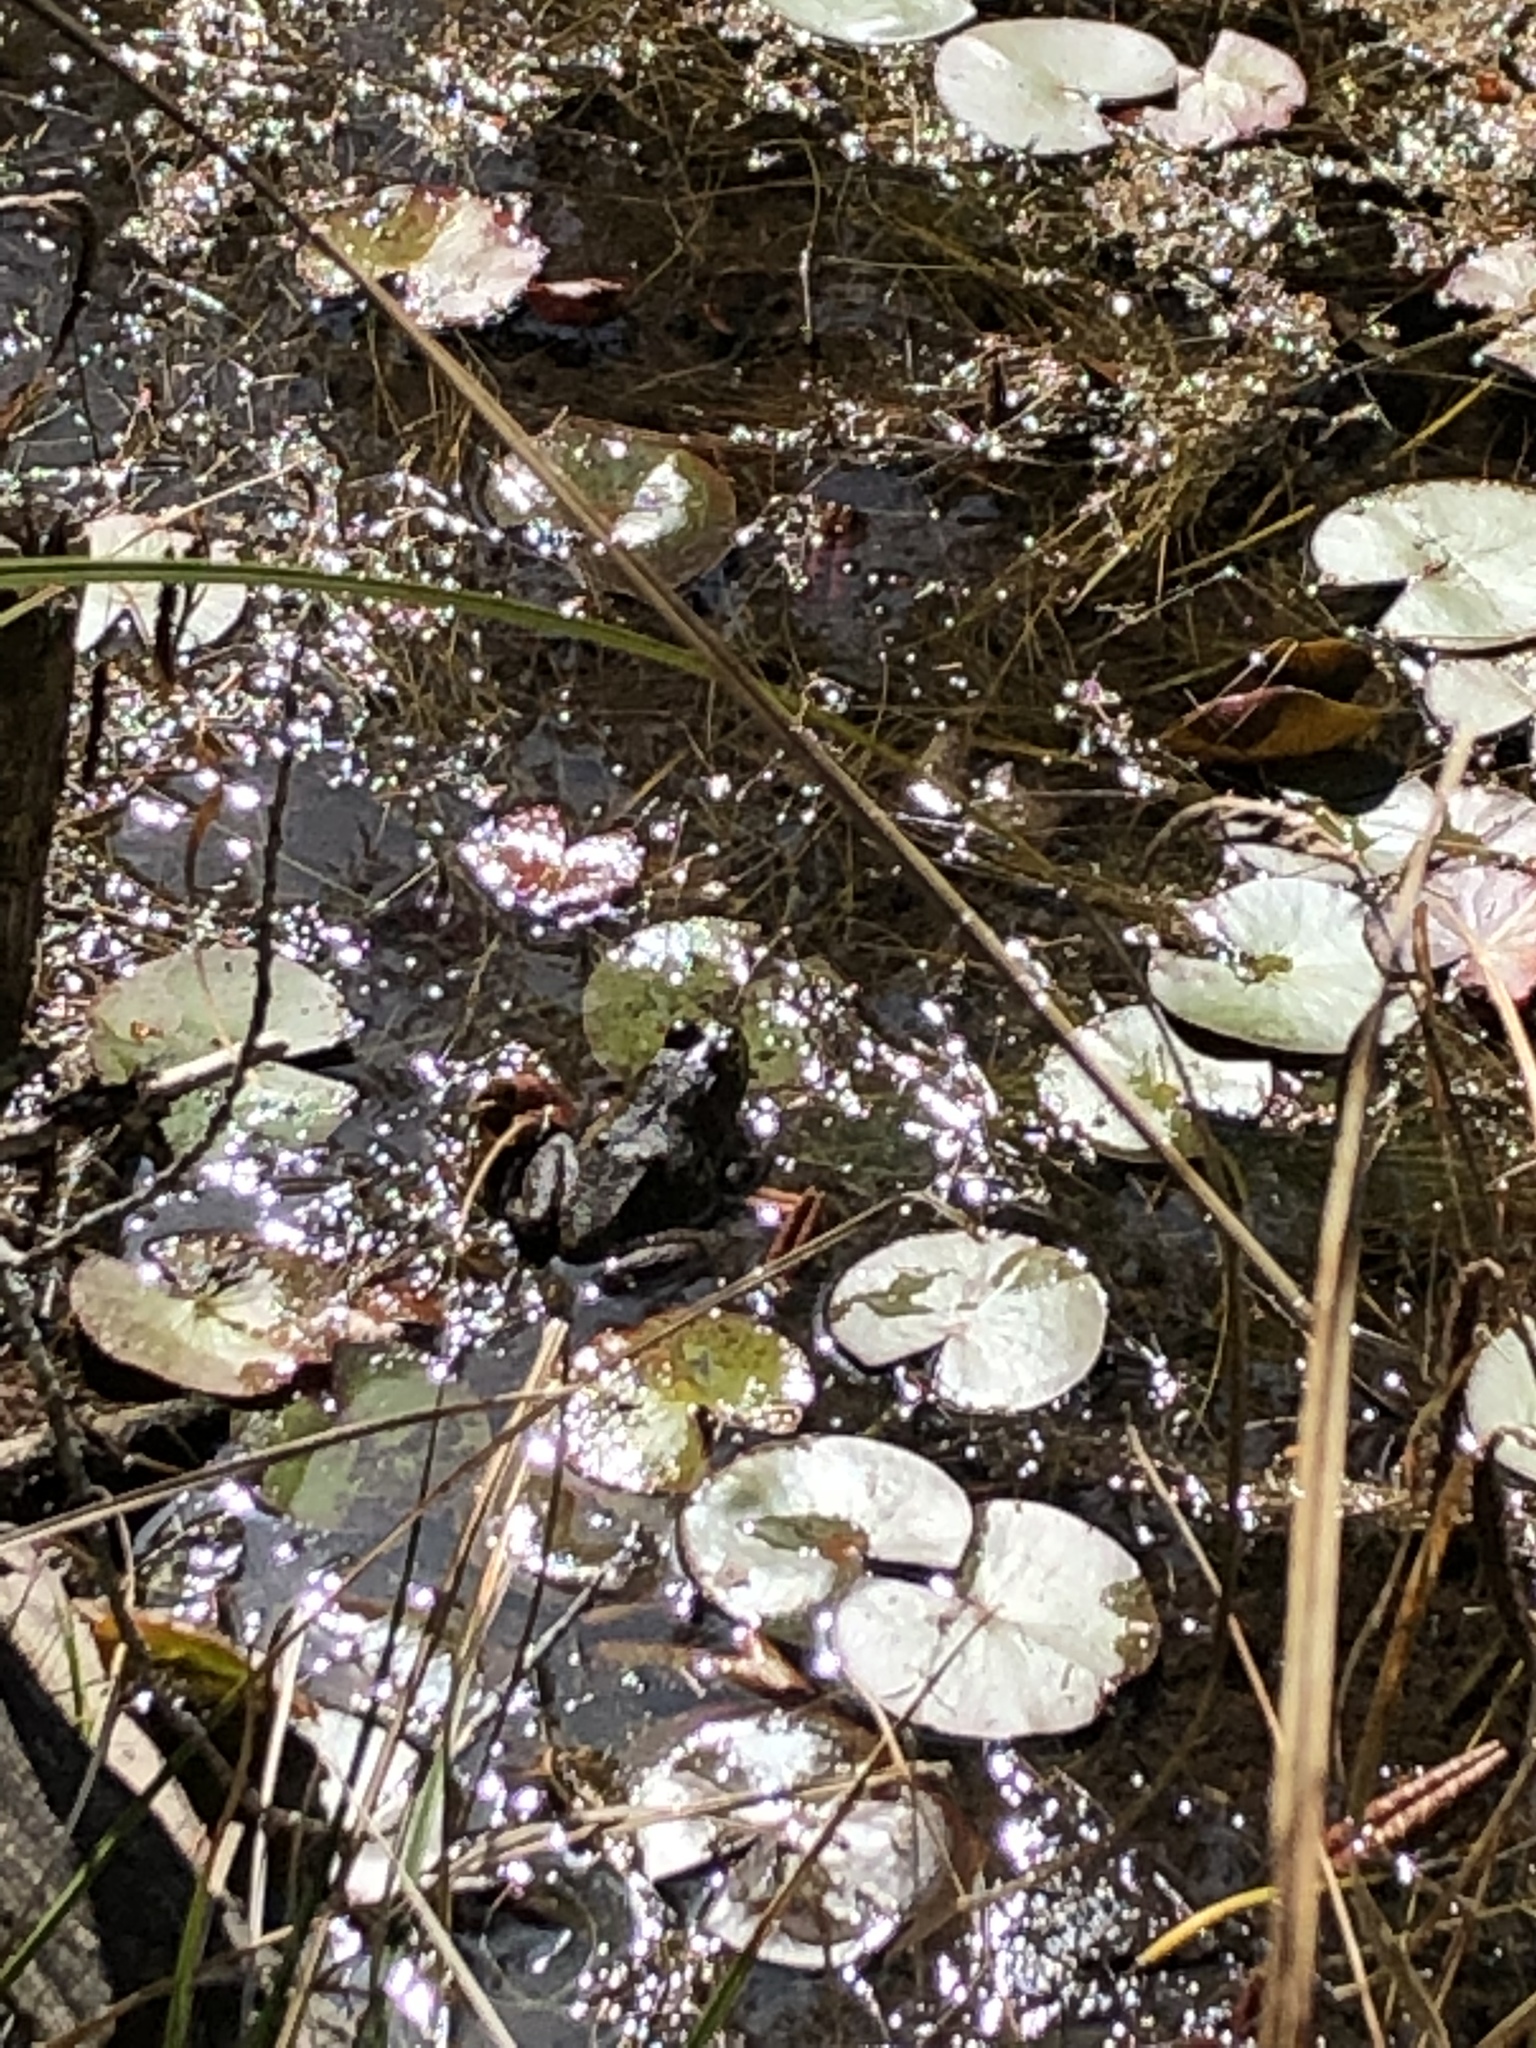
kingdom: Animalia
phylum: Chordata
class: Amphibia
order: Anura
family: Ranidae
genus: Lithobates
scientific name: Lithobates catesbeianus
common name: American bullfrog
